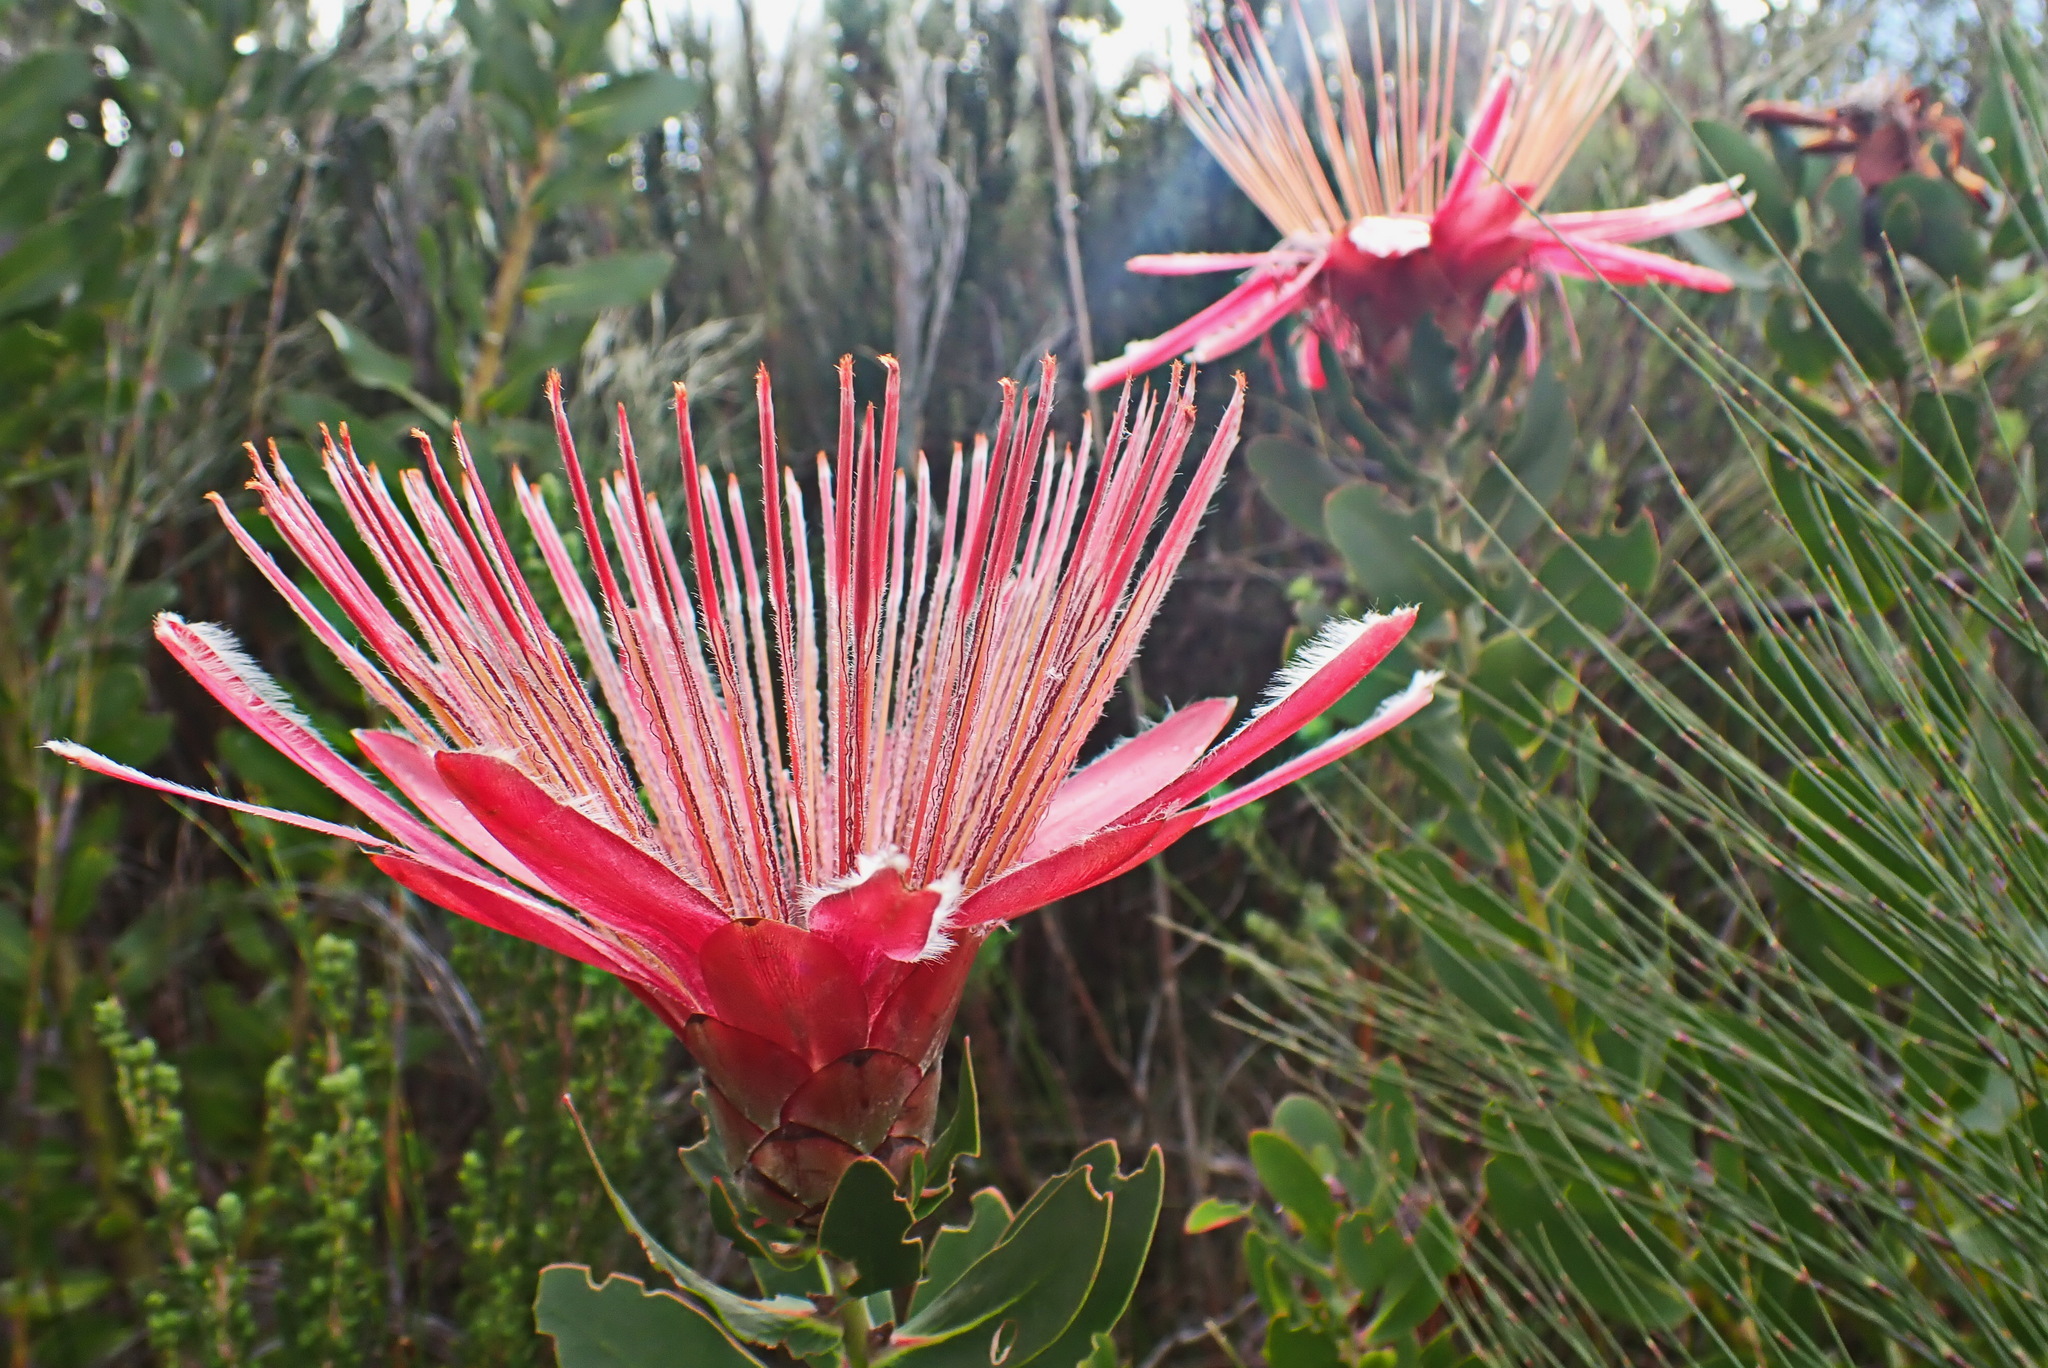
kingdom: Plantae
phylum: Tracheophyta
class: Magnoliopsida
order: Proteales
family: Proteaceae
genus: Protea
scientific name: Protea aurea
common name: Shuttlecock sugarbush
